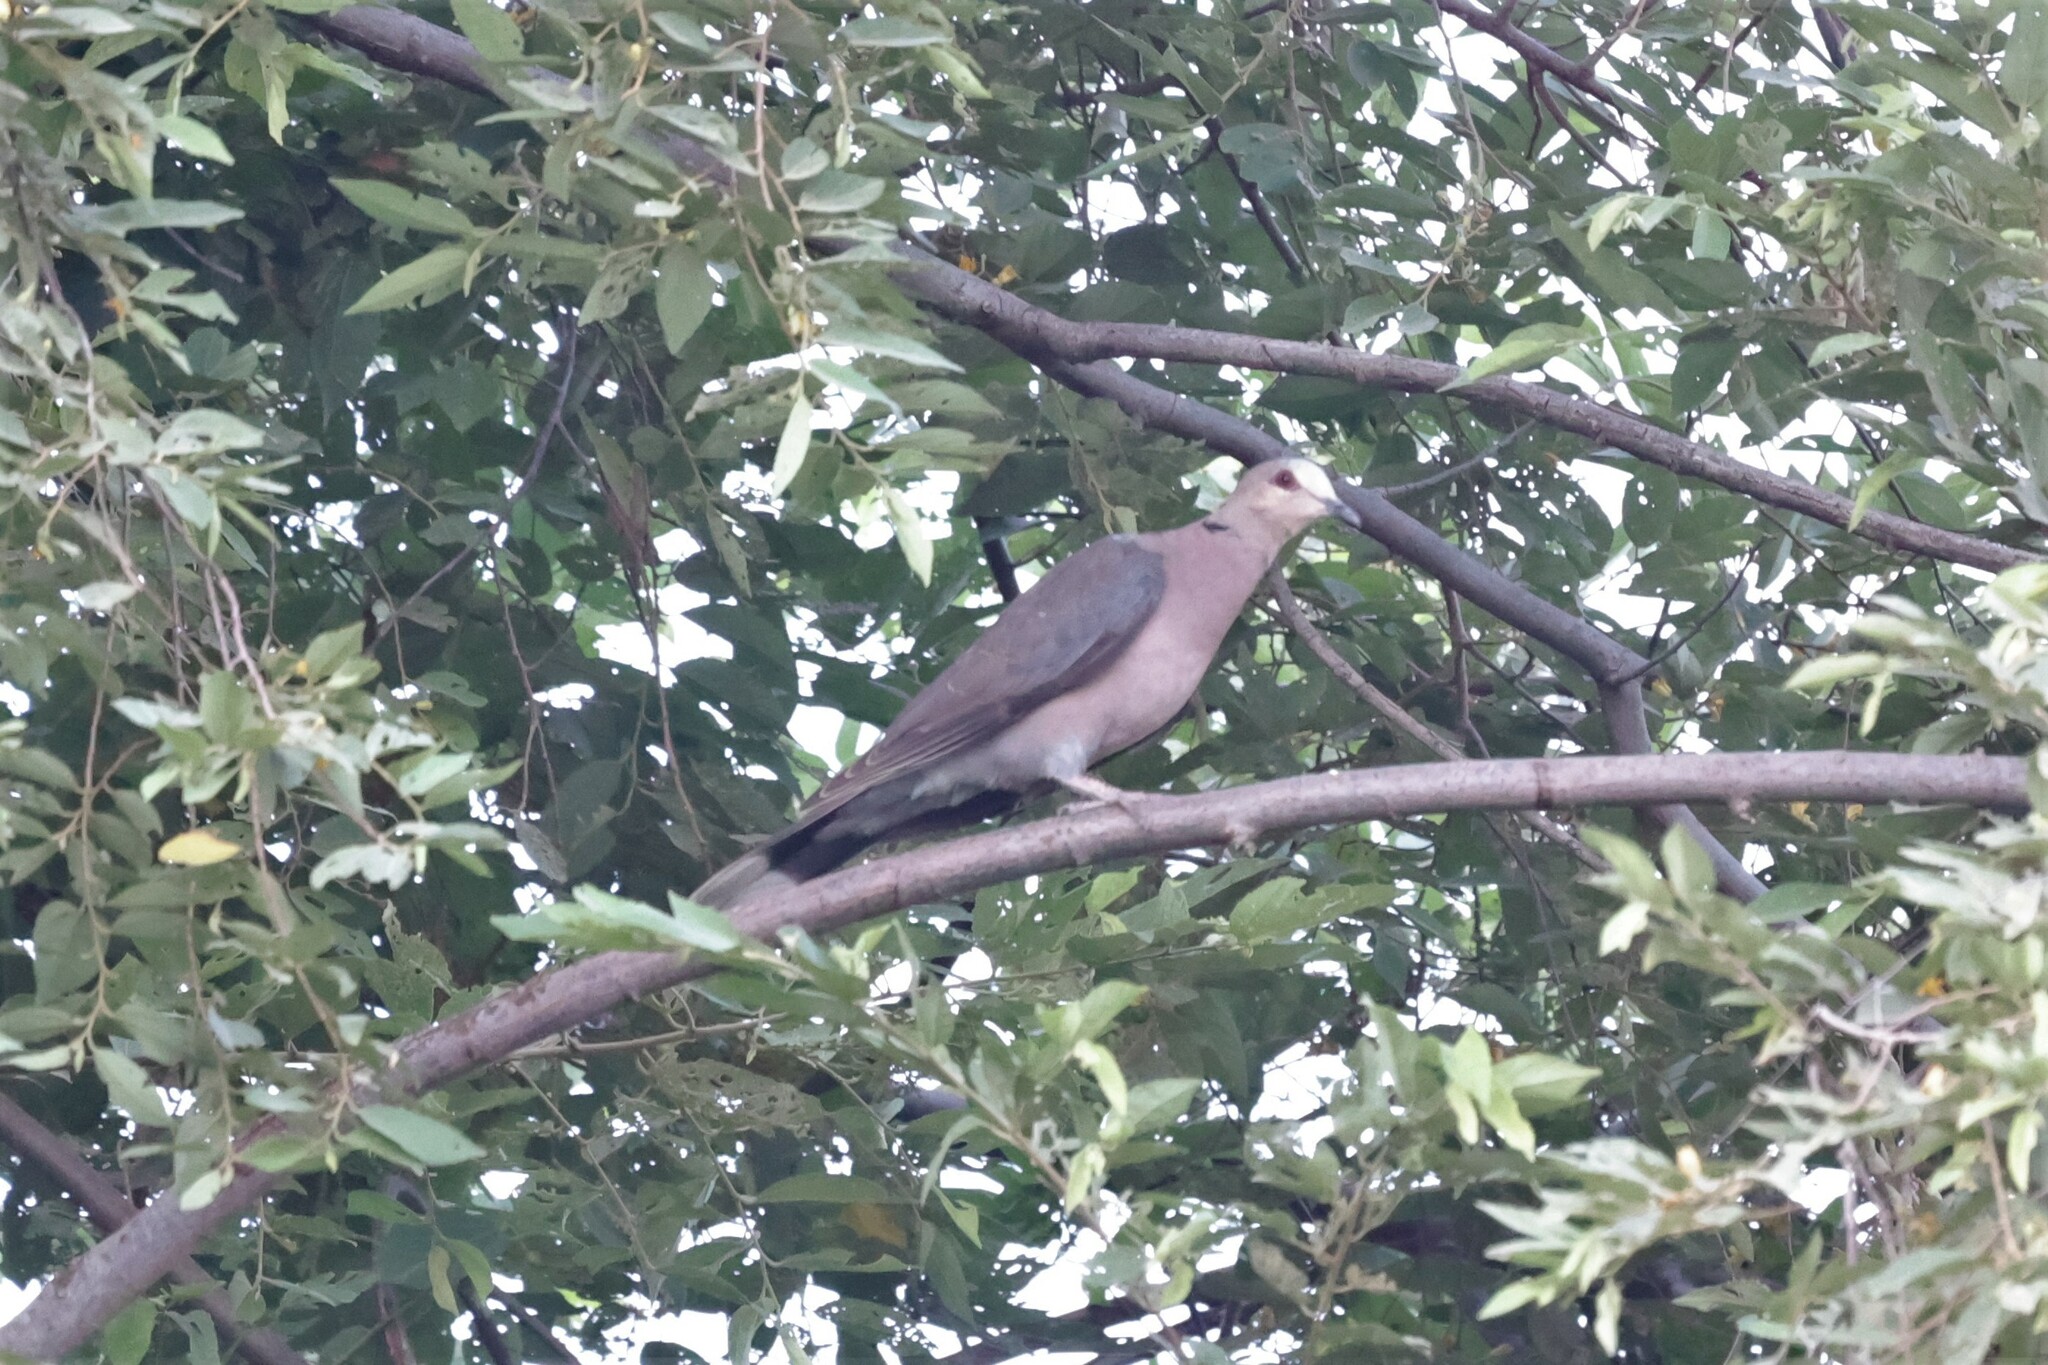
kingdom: Animalia
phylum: Chordata
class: Aves
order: Columbiformes
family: Columbidae
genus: Streptopelia
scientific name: Streptopelia semitorquata
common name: Red-eyed dove
